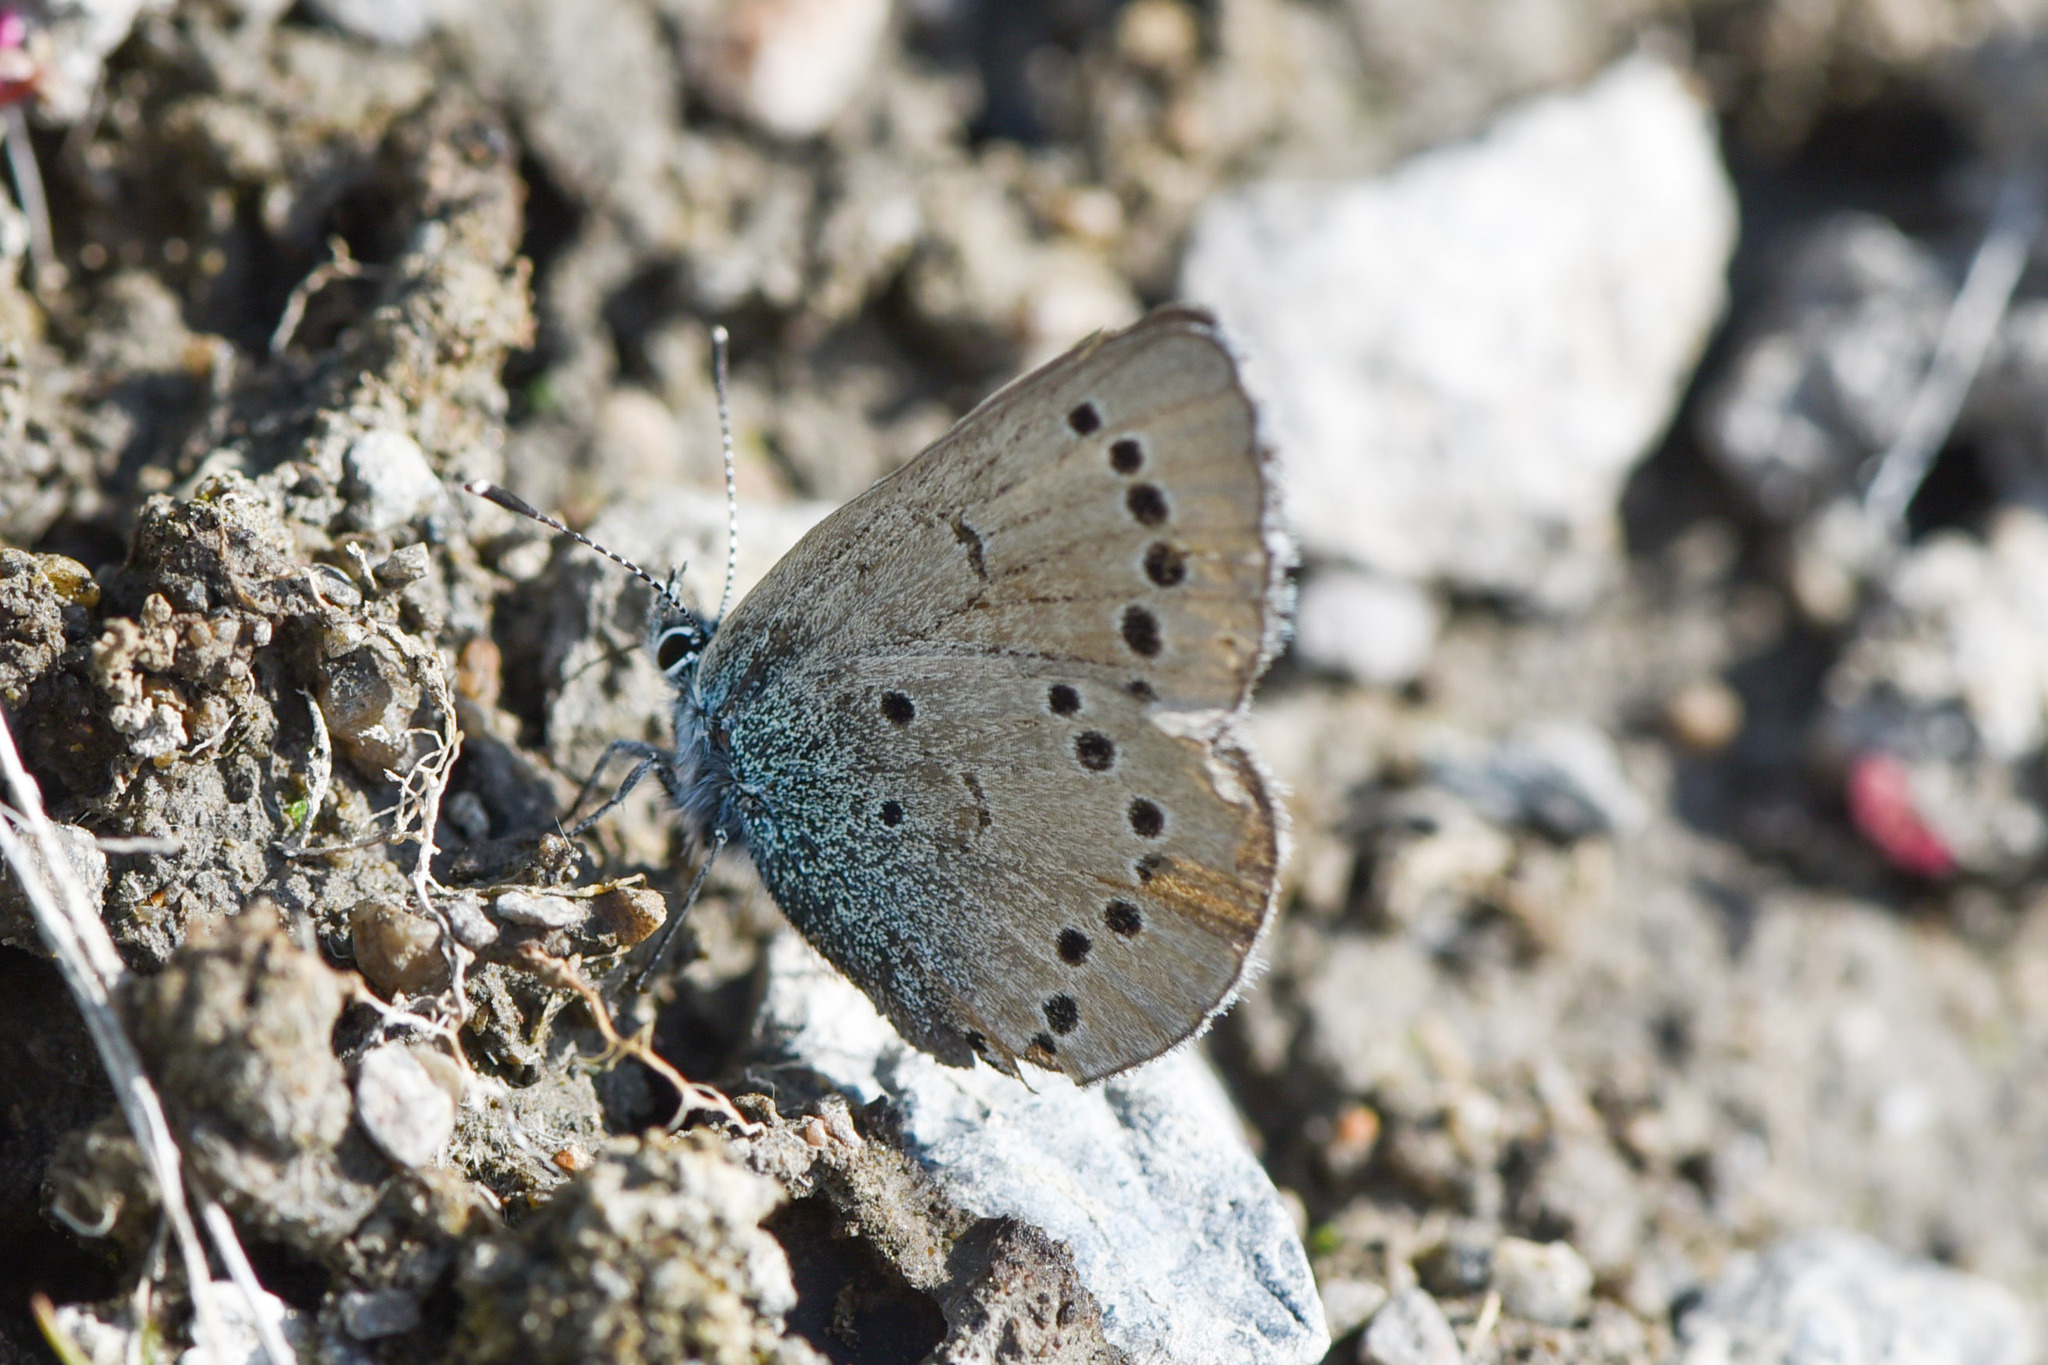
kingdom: Animalia
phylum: Arthropoda
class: Insecta
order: Lepidoptera
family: Lycaenidae
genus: Glaucopsyche
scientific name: Glaucopsyche lygdamus
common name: Silvery blue
